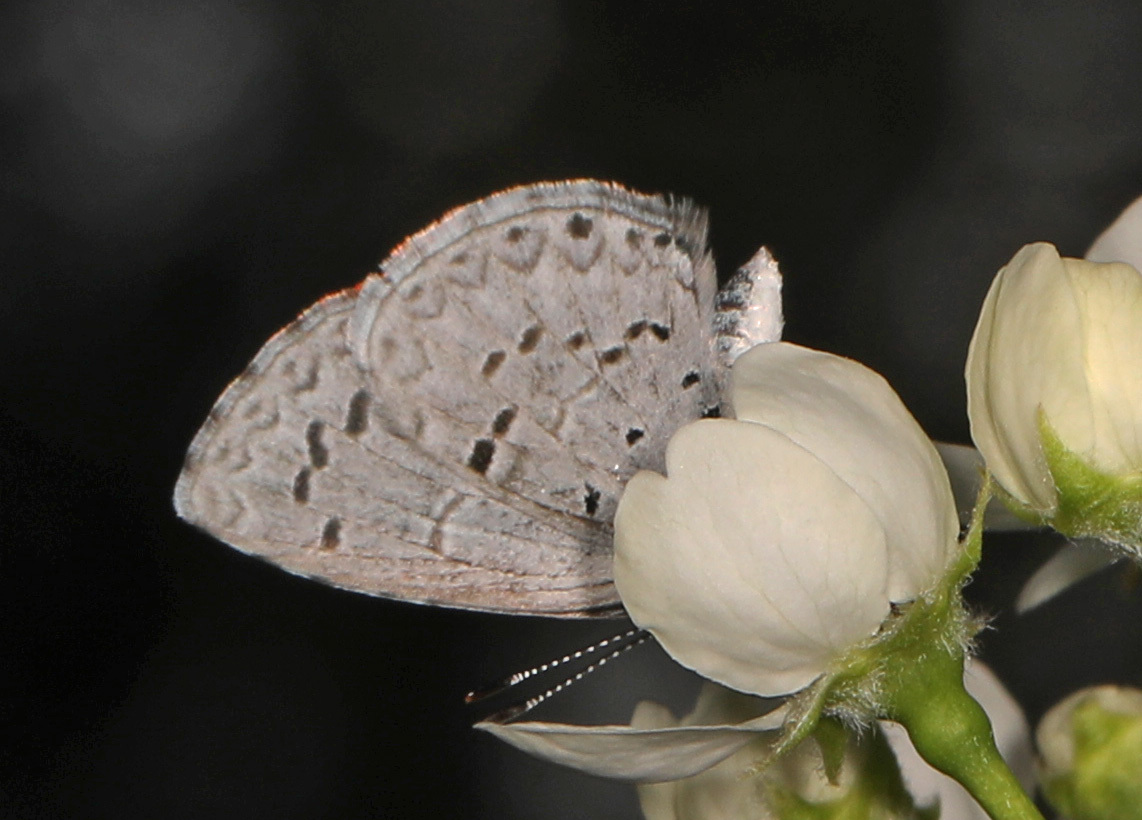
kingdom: Animalia
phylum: Arthropoda
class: Insecta
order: Lepidoptera
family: Lycaenidae
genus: Cyaniris
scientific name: Cyaniris neglecta
